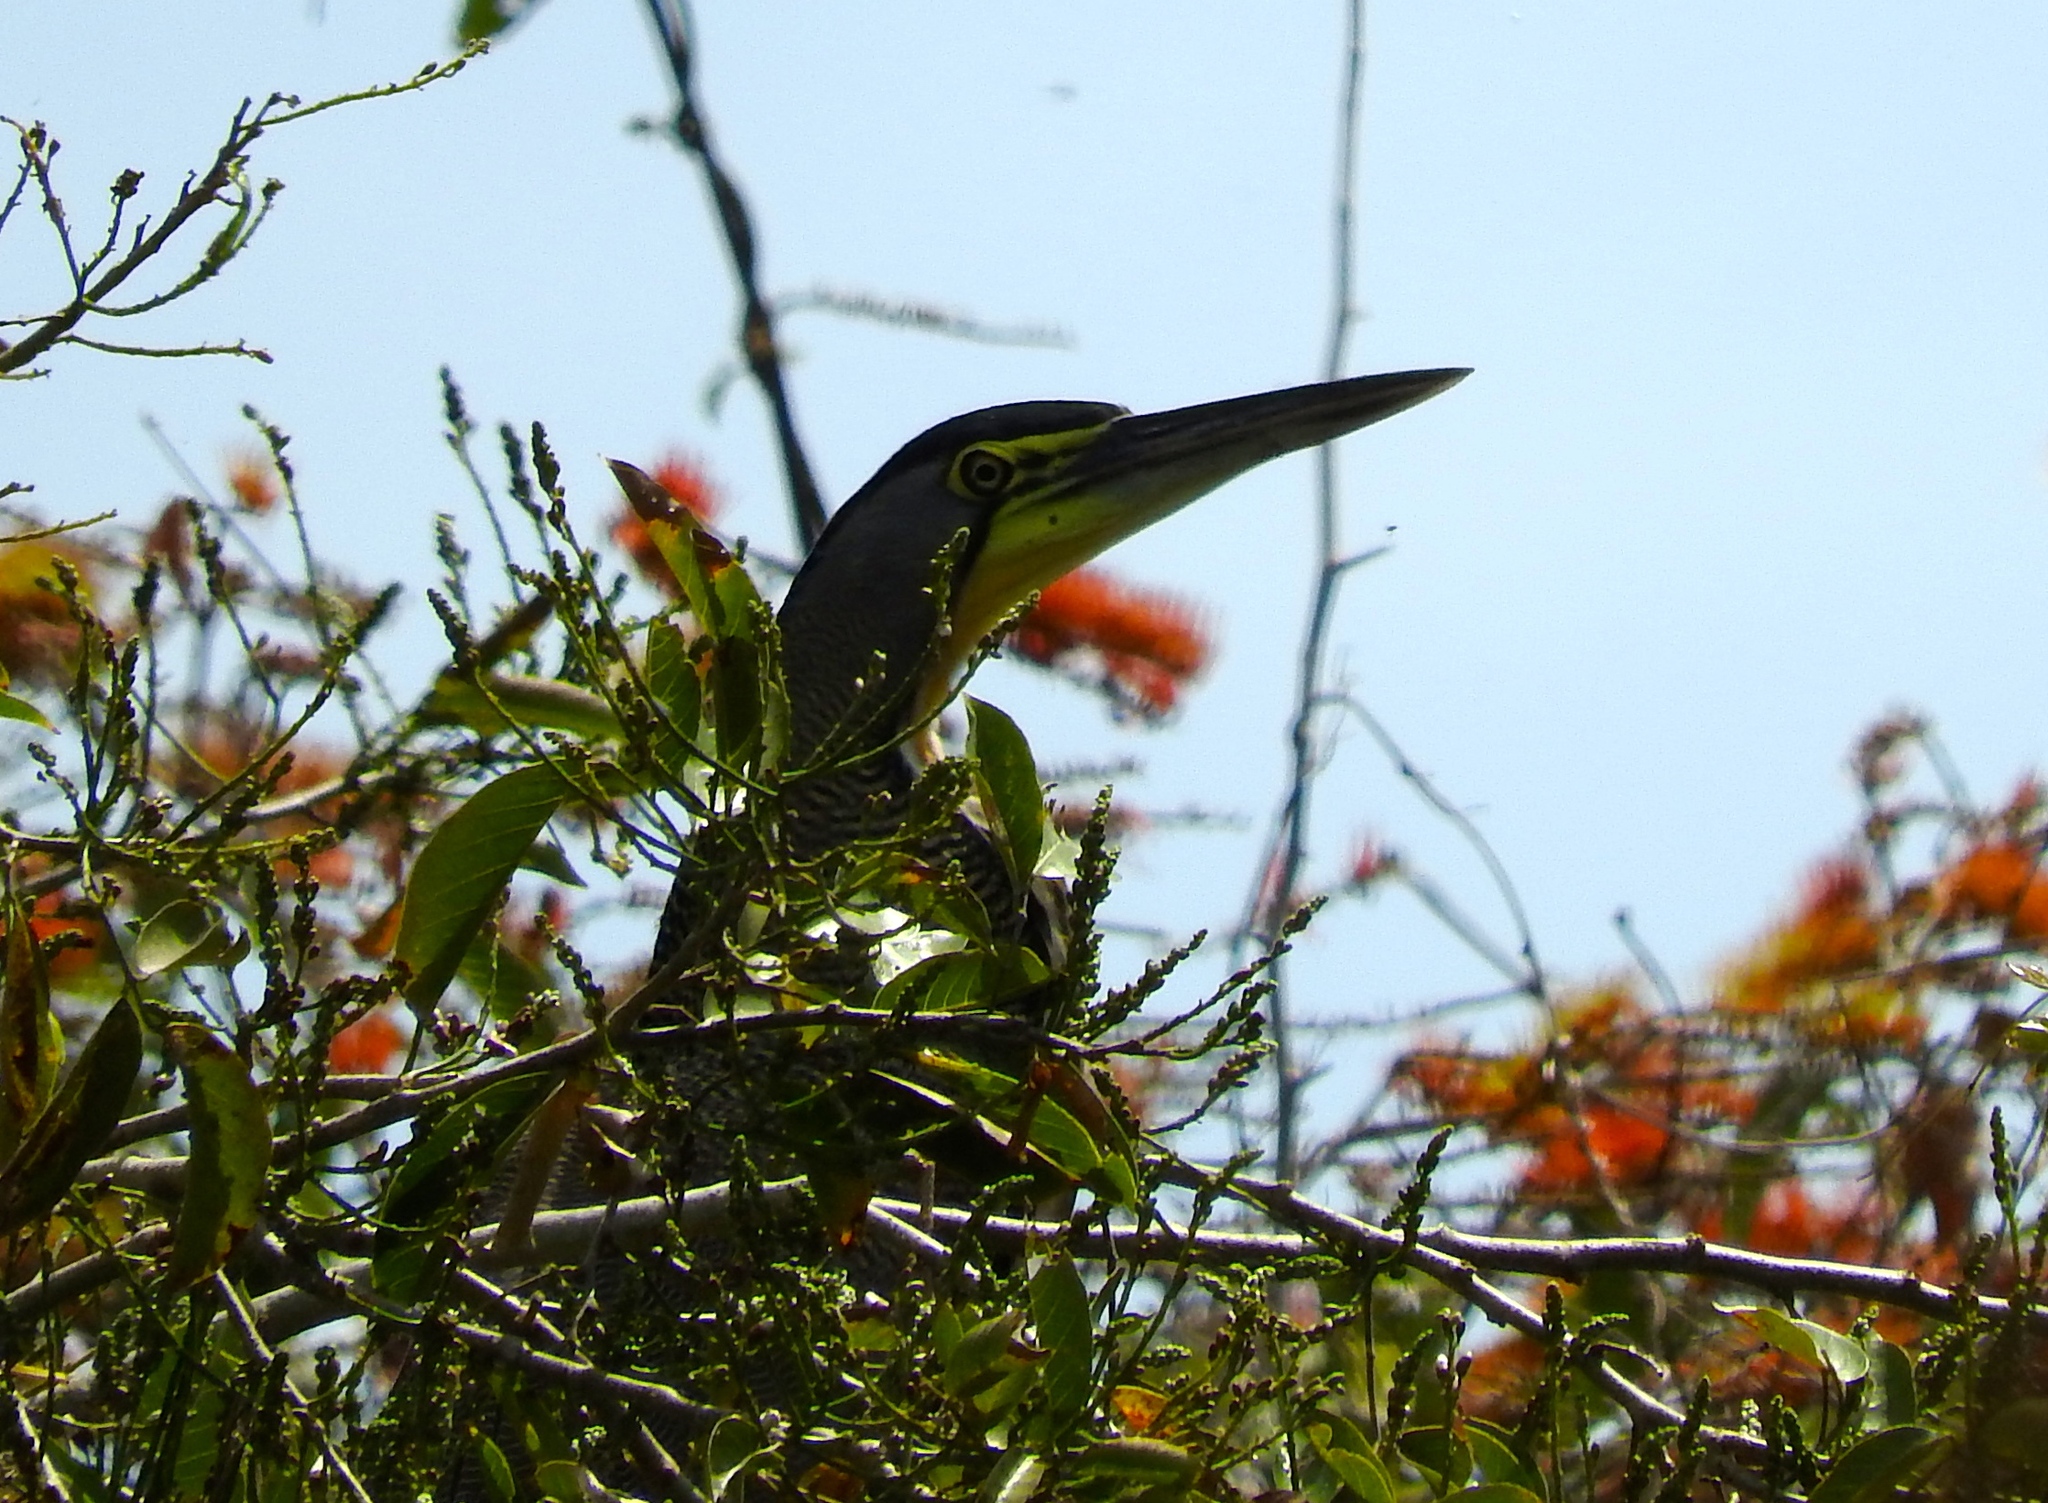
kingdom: Animalia
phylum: Chordata
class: Aves
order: Pelecaniformes
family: Ardeidae
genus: Tigrisoma
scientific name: Tigrisoma mexicanum
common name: Bare-throated tiger-heron
